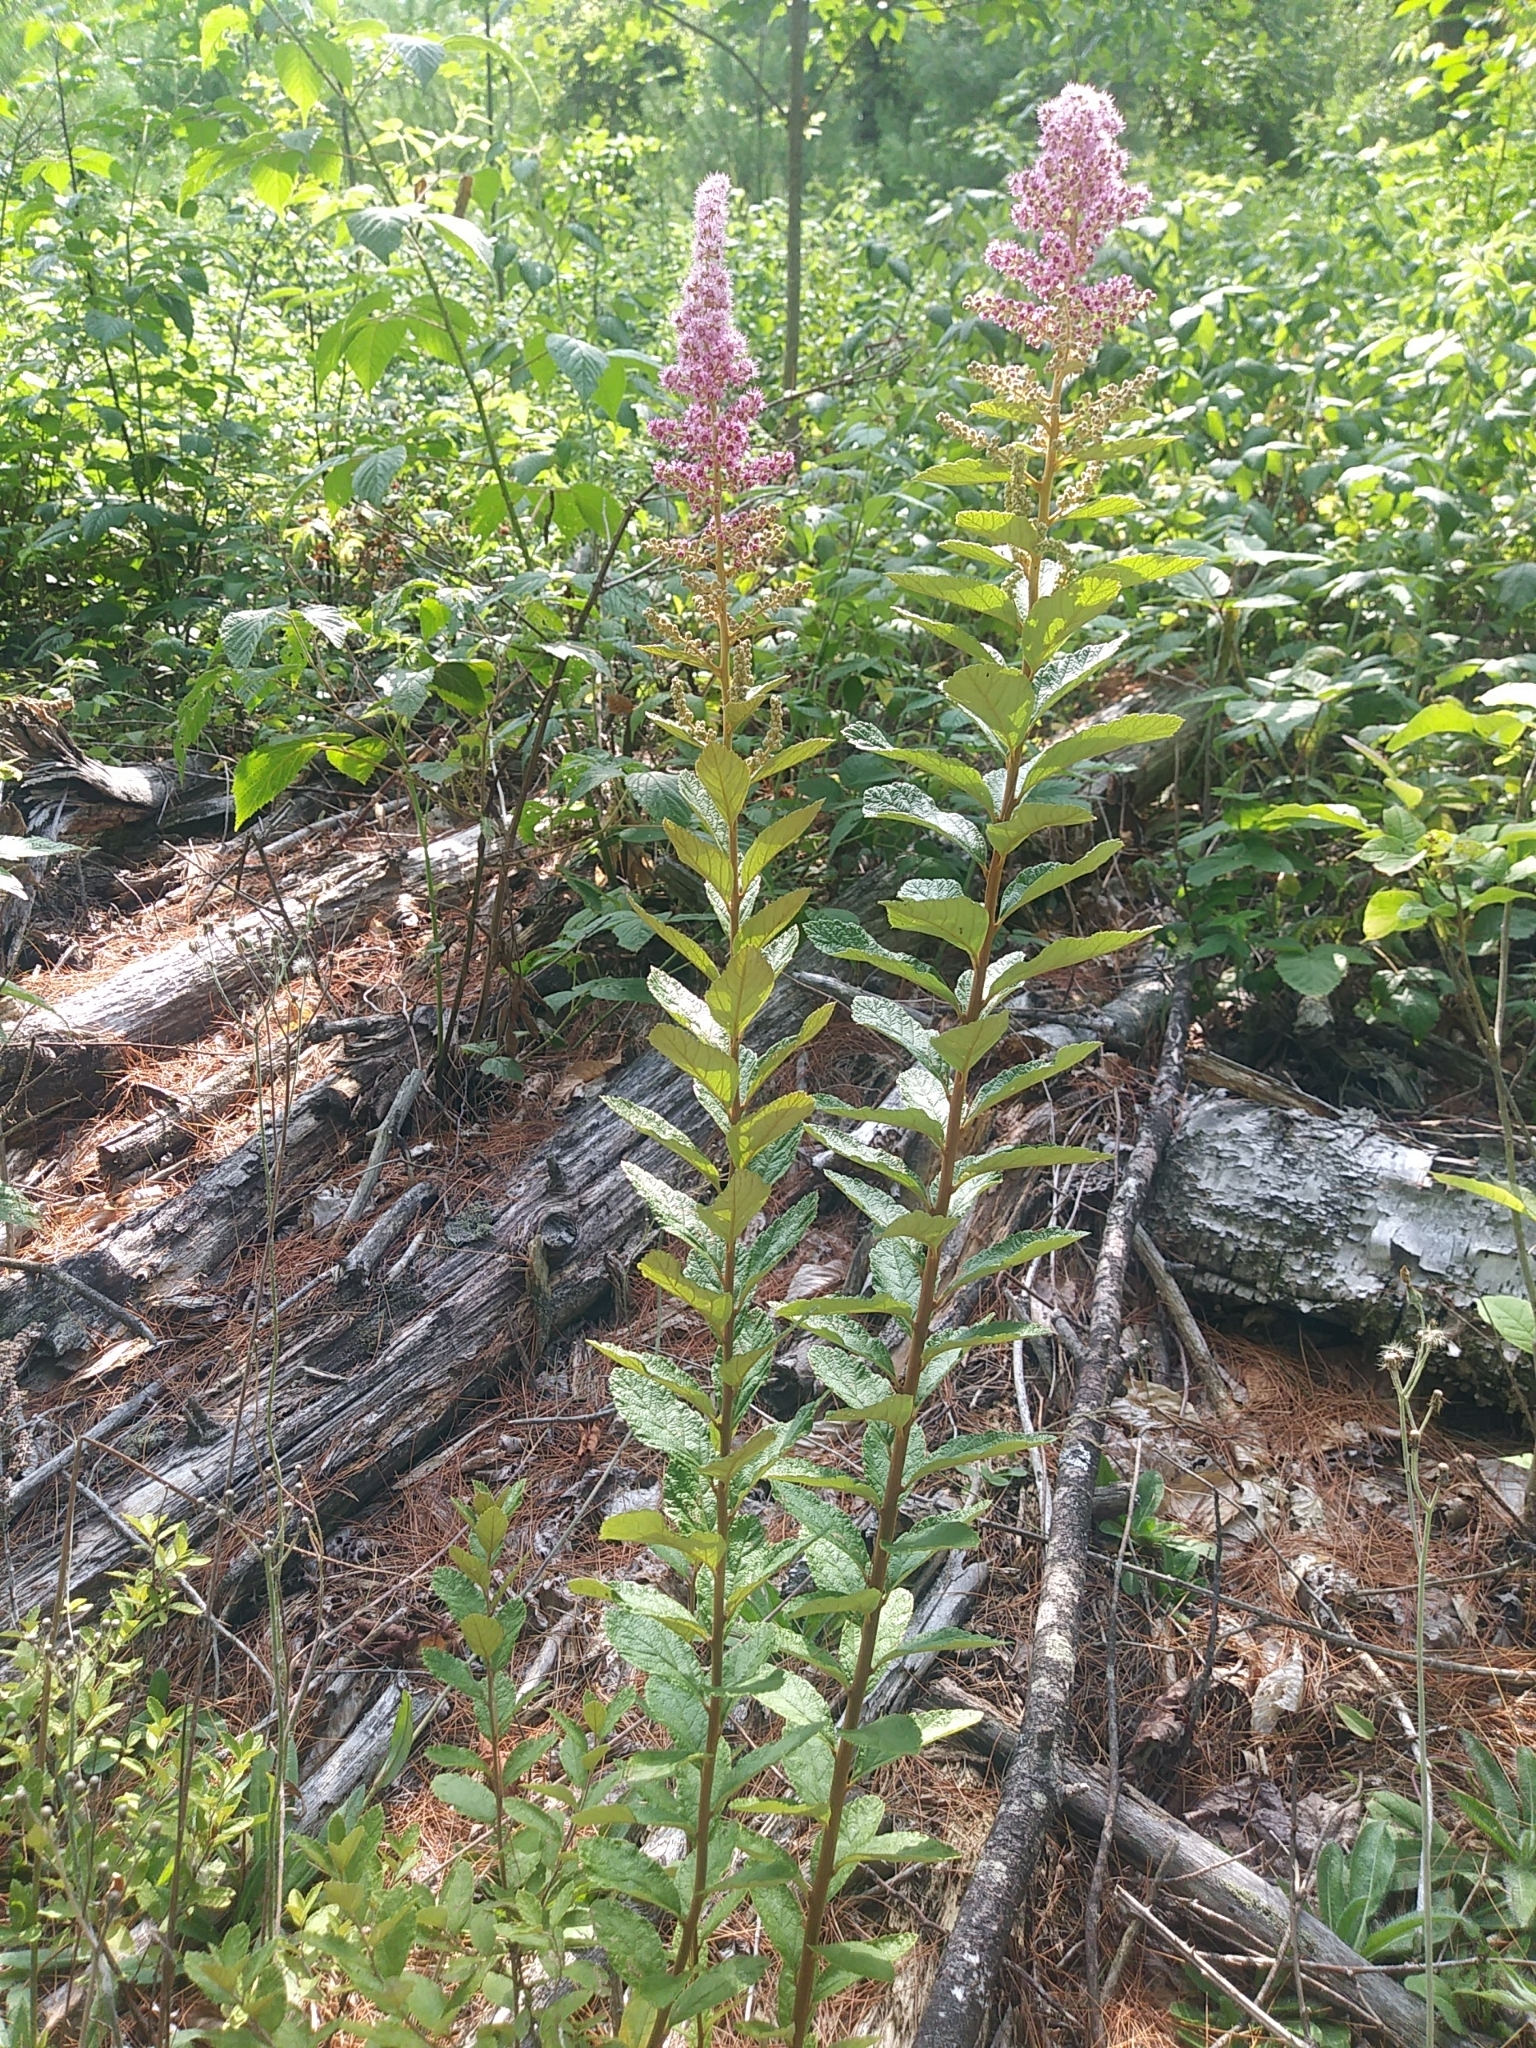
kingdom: Plantae
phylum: Tracheophyta
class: Magnoliopsida
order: Rosales
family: Rosaceae
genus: Spiraea
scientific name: Spiraea tomentosa
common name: Hardhack
